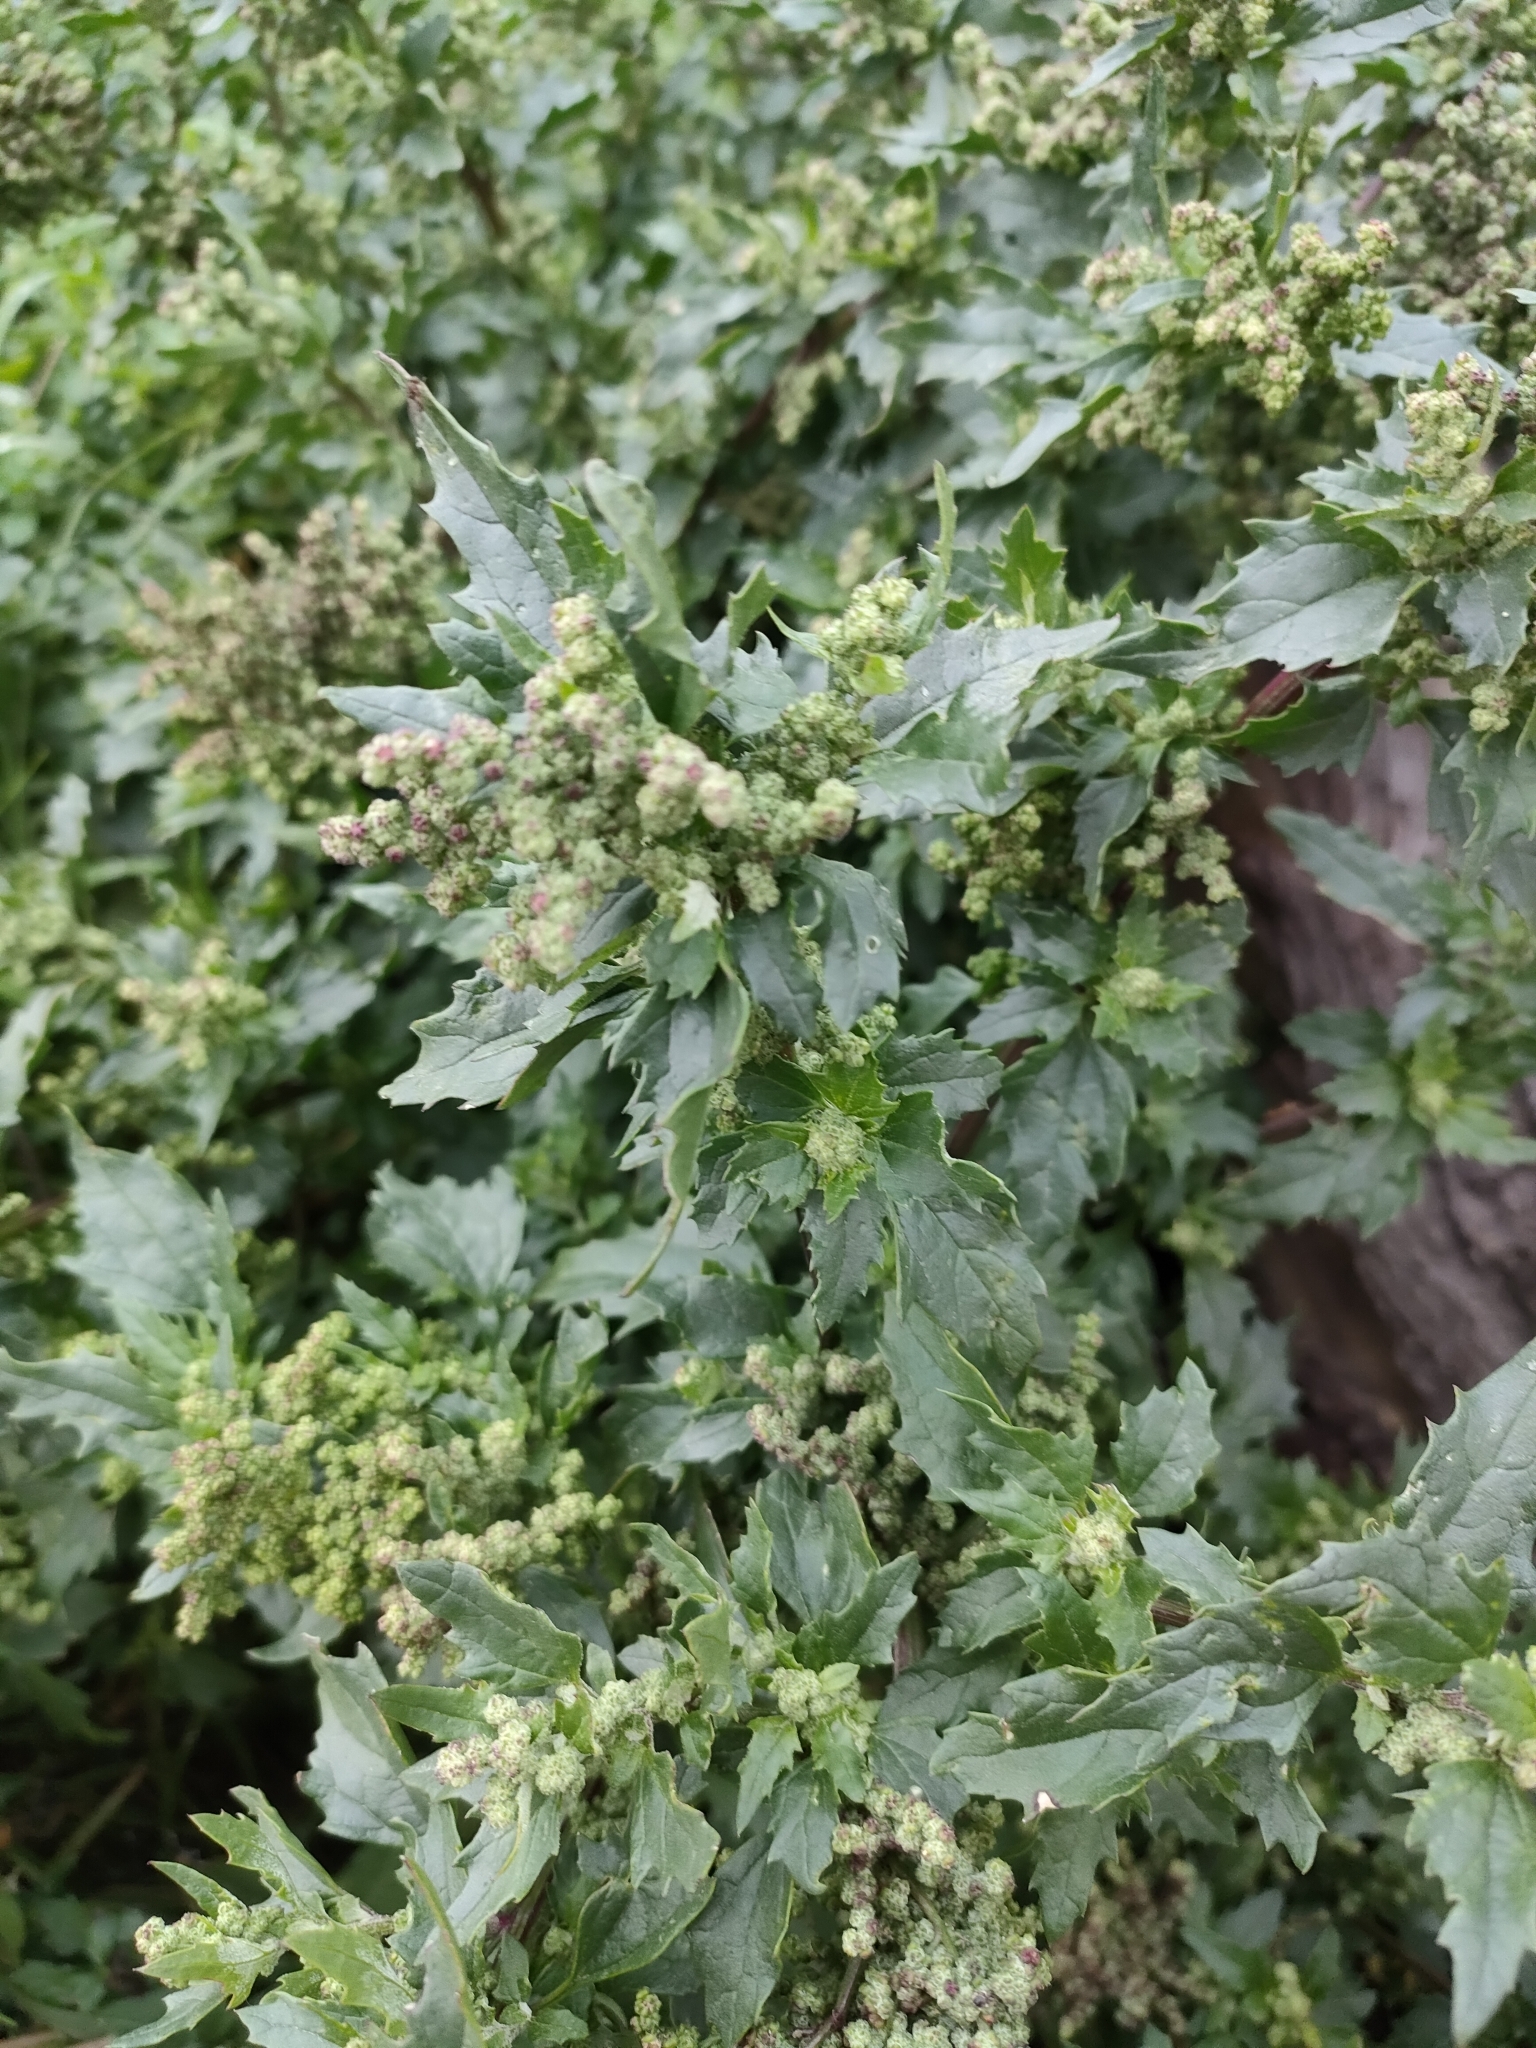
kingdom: Plantae
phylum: Tracheophyta
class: Magnoliopsida
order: Caryophyllales
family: Amaranthaceae
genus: Chenopodiastrum
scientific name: Chenopodiastrum murale
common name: Sowbane
